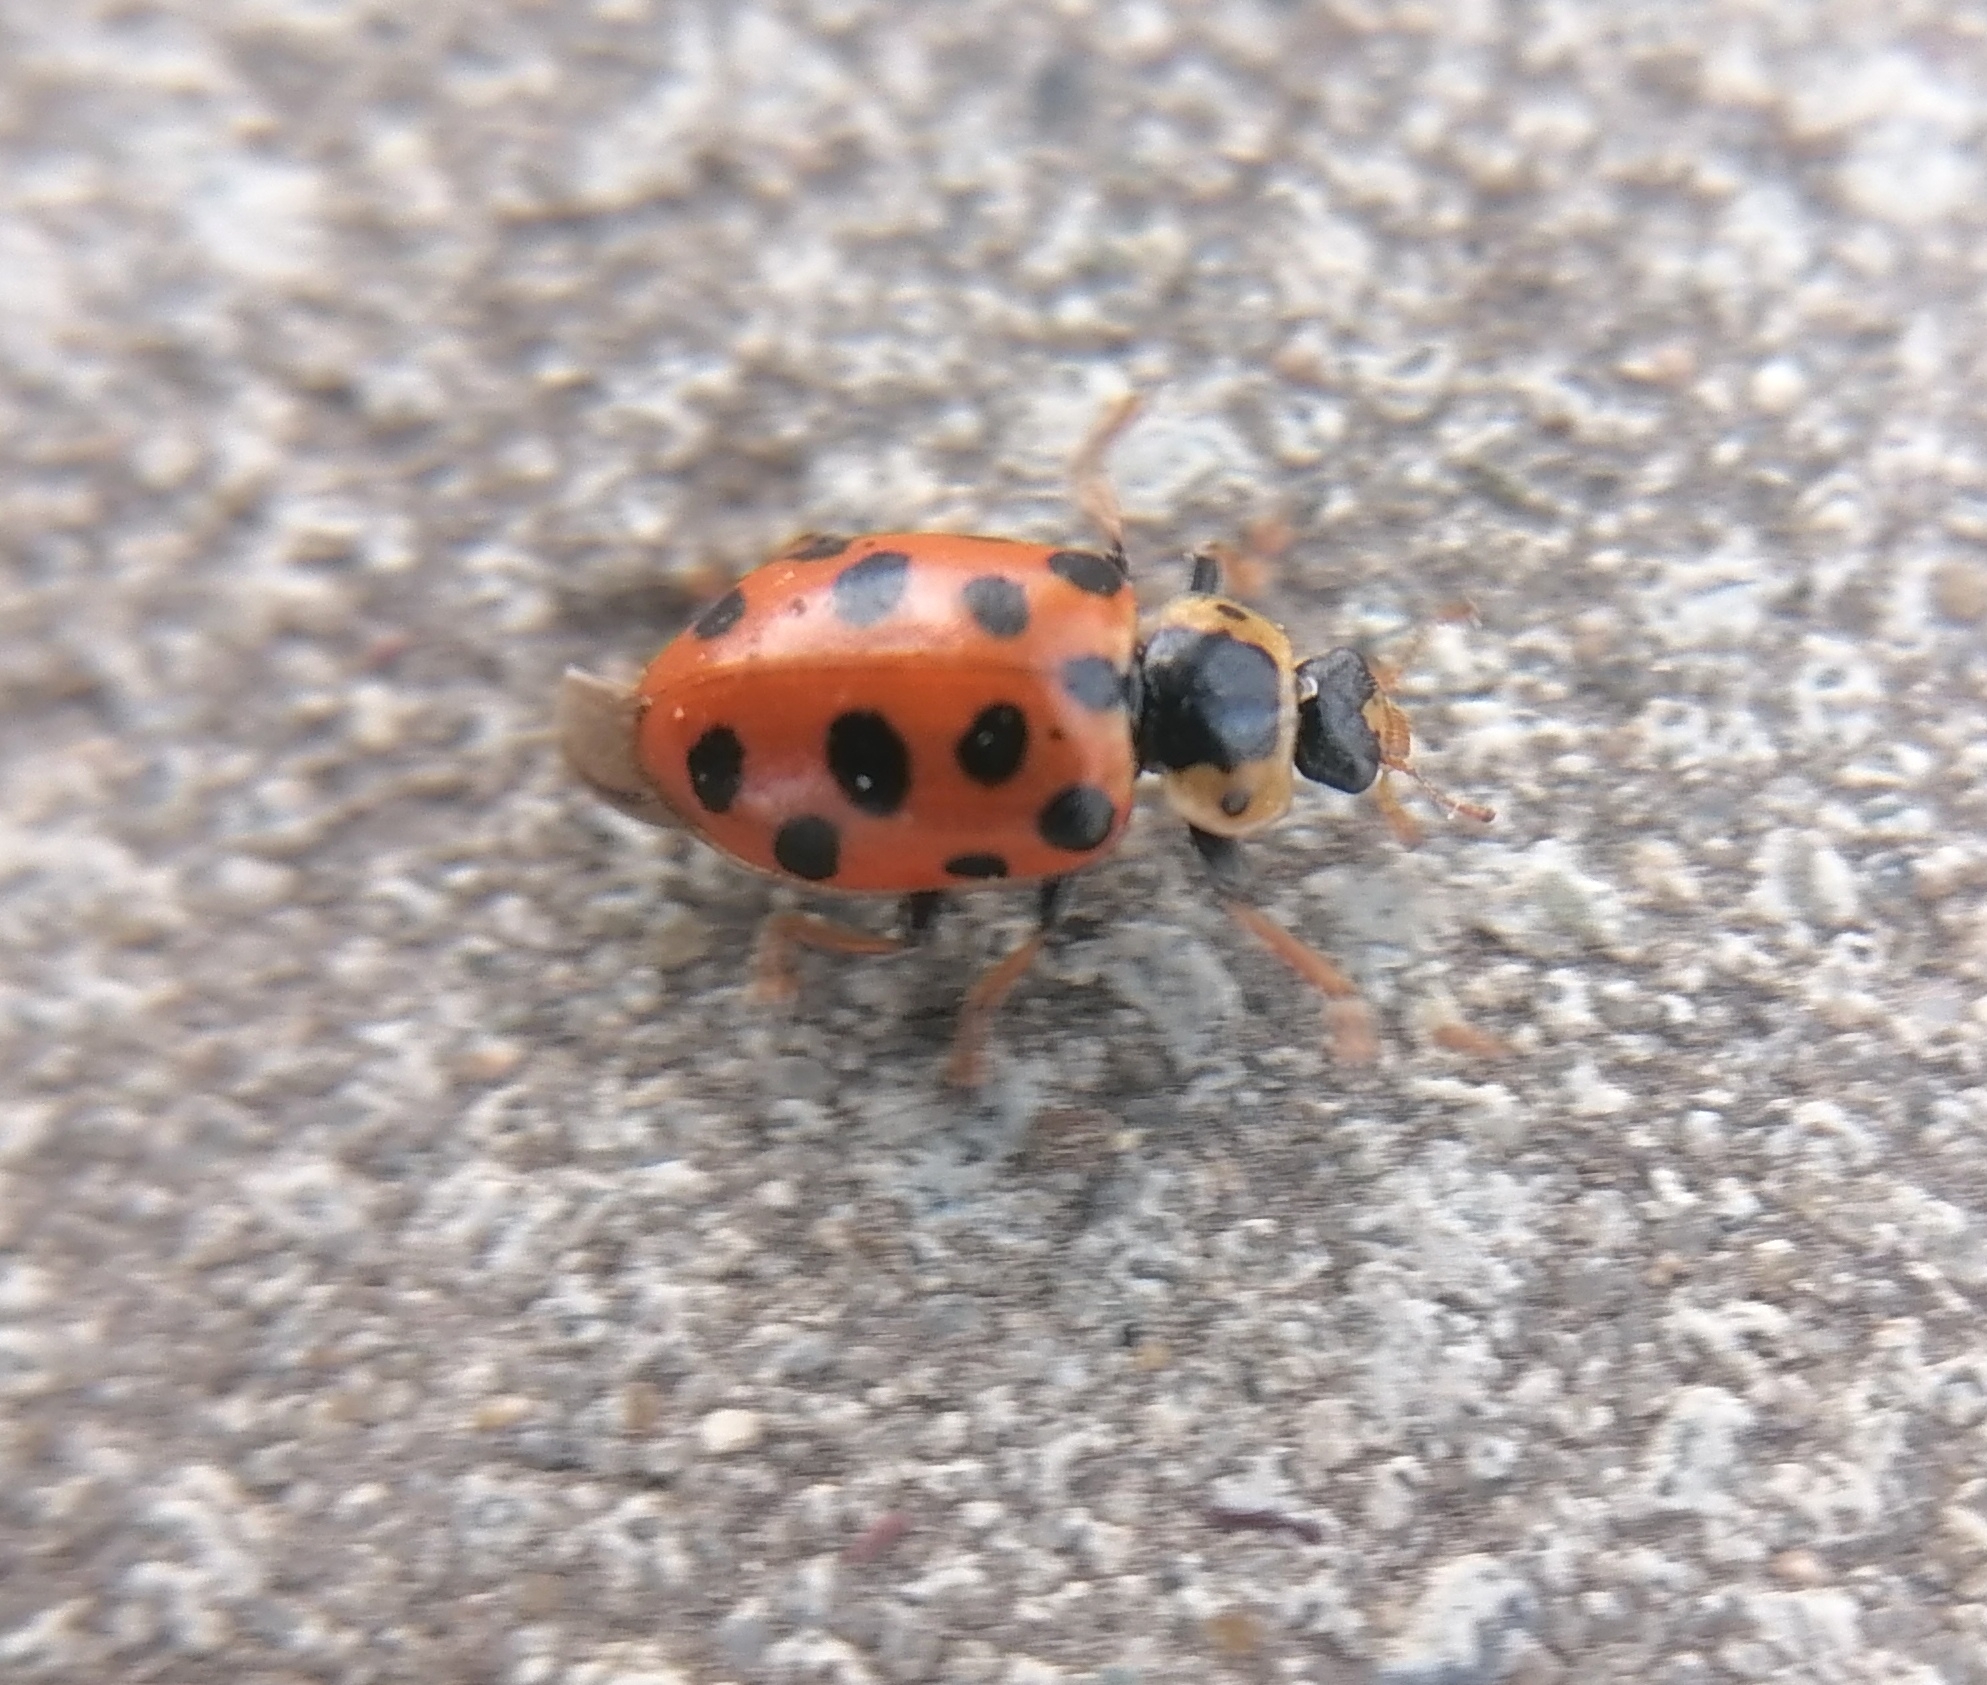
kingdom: Animalia
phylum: Arthropoda
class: Insecta
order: Coleoptera
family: Coccinellidae
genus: Hippodamia
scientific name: Hippodamia tredecimpunctata
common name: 13-spot ladybird
